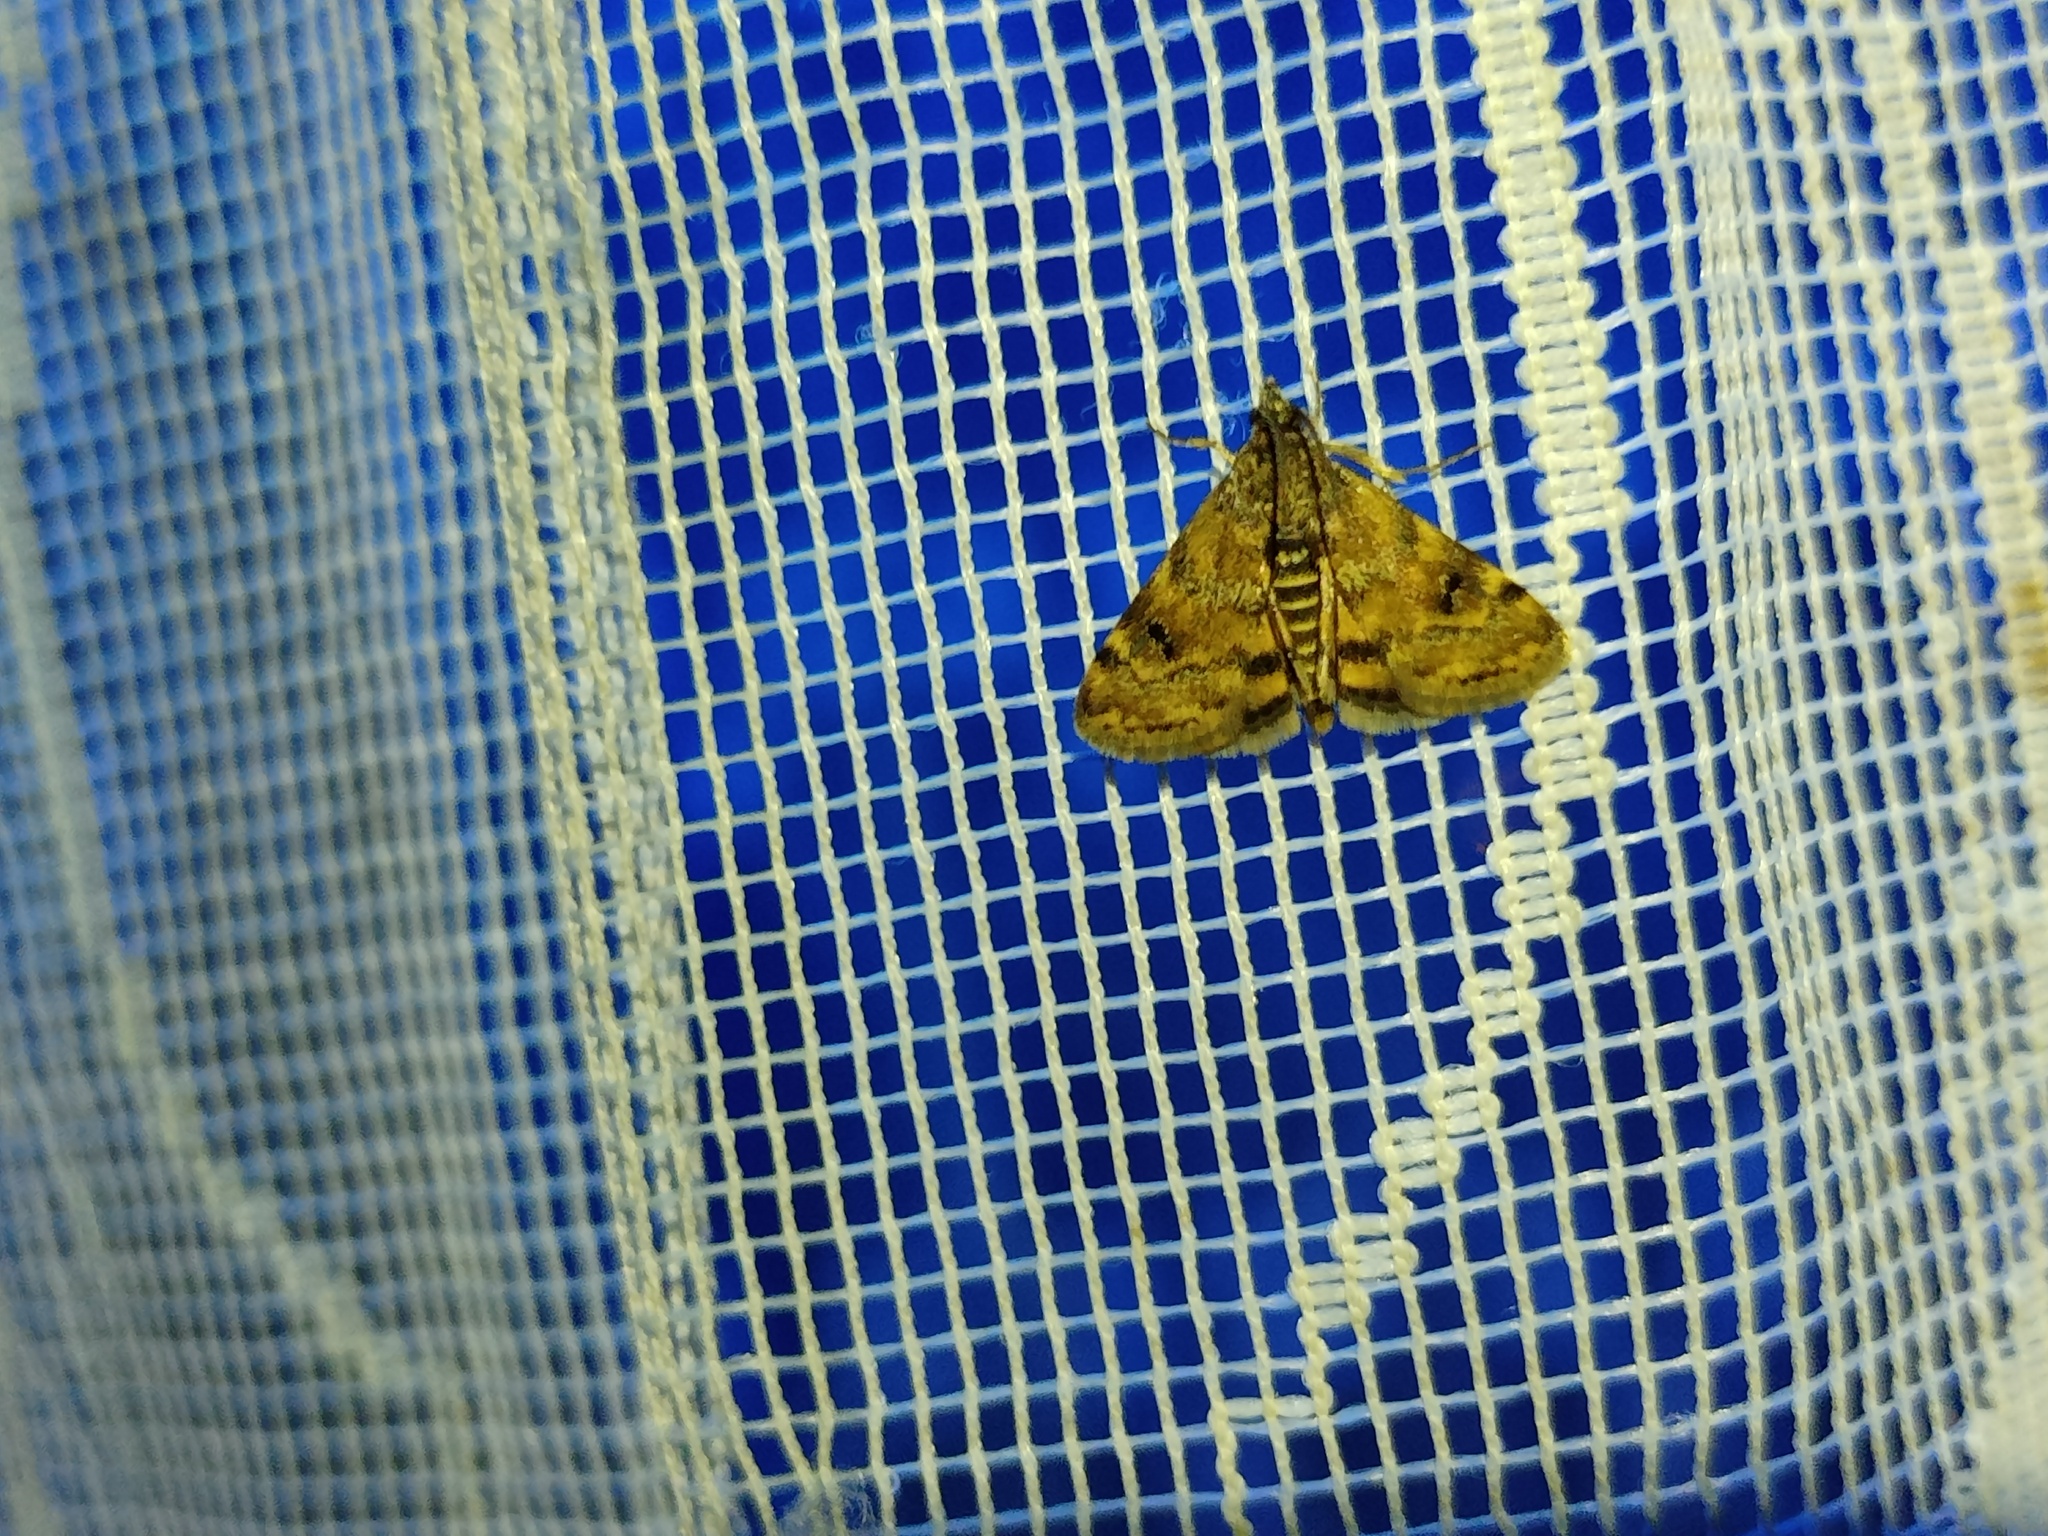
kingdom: Animalia
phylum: Arthropoda
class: Insecta
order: Lepidoptera
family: Crambidae
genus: Noctuelia
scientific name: Noctuelia Aporodes floralis
